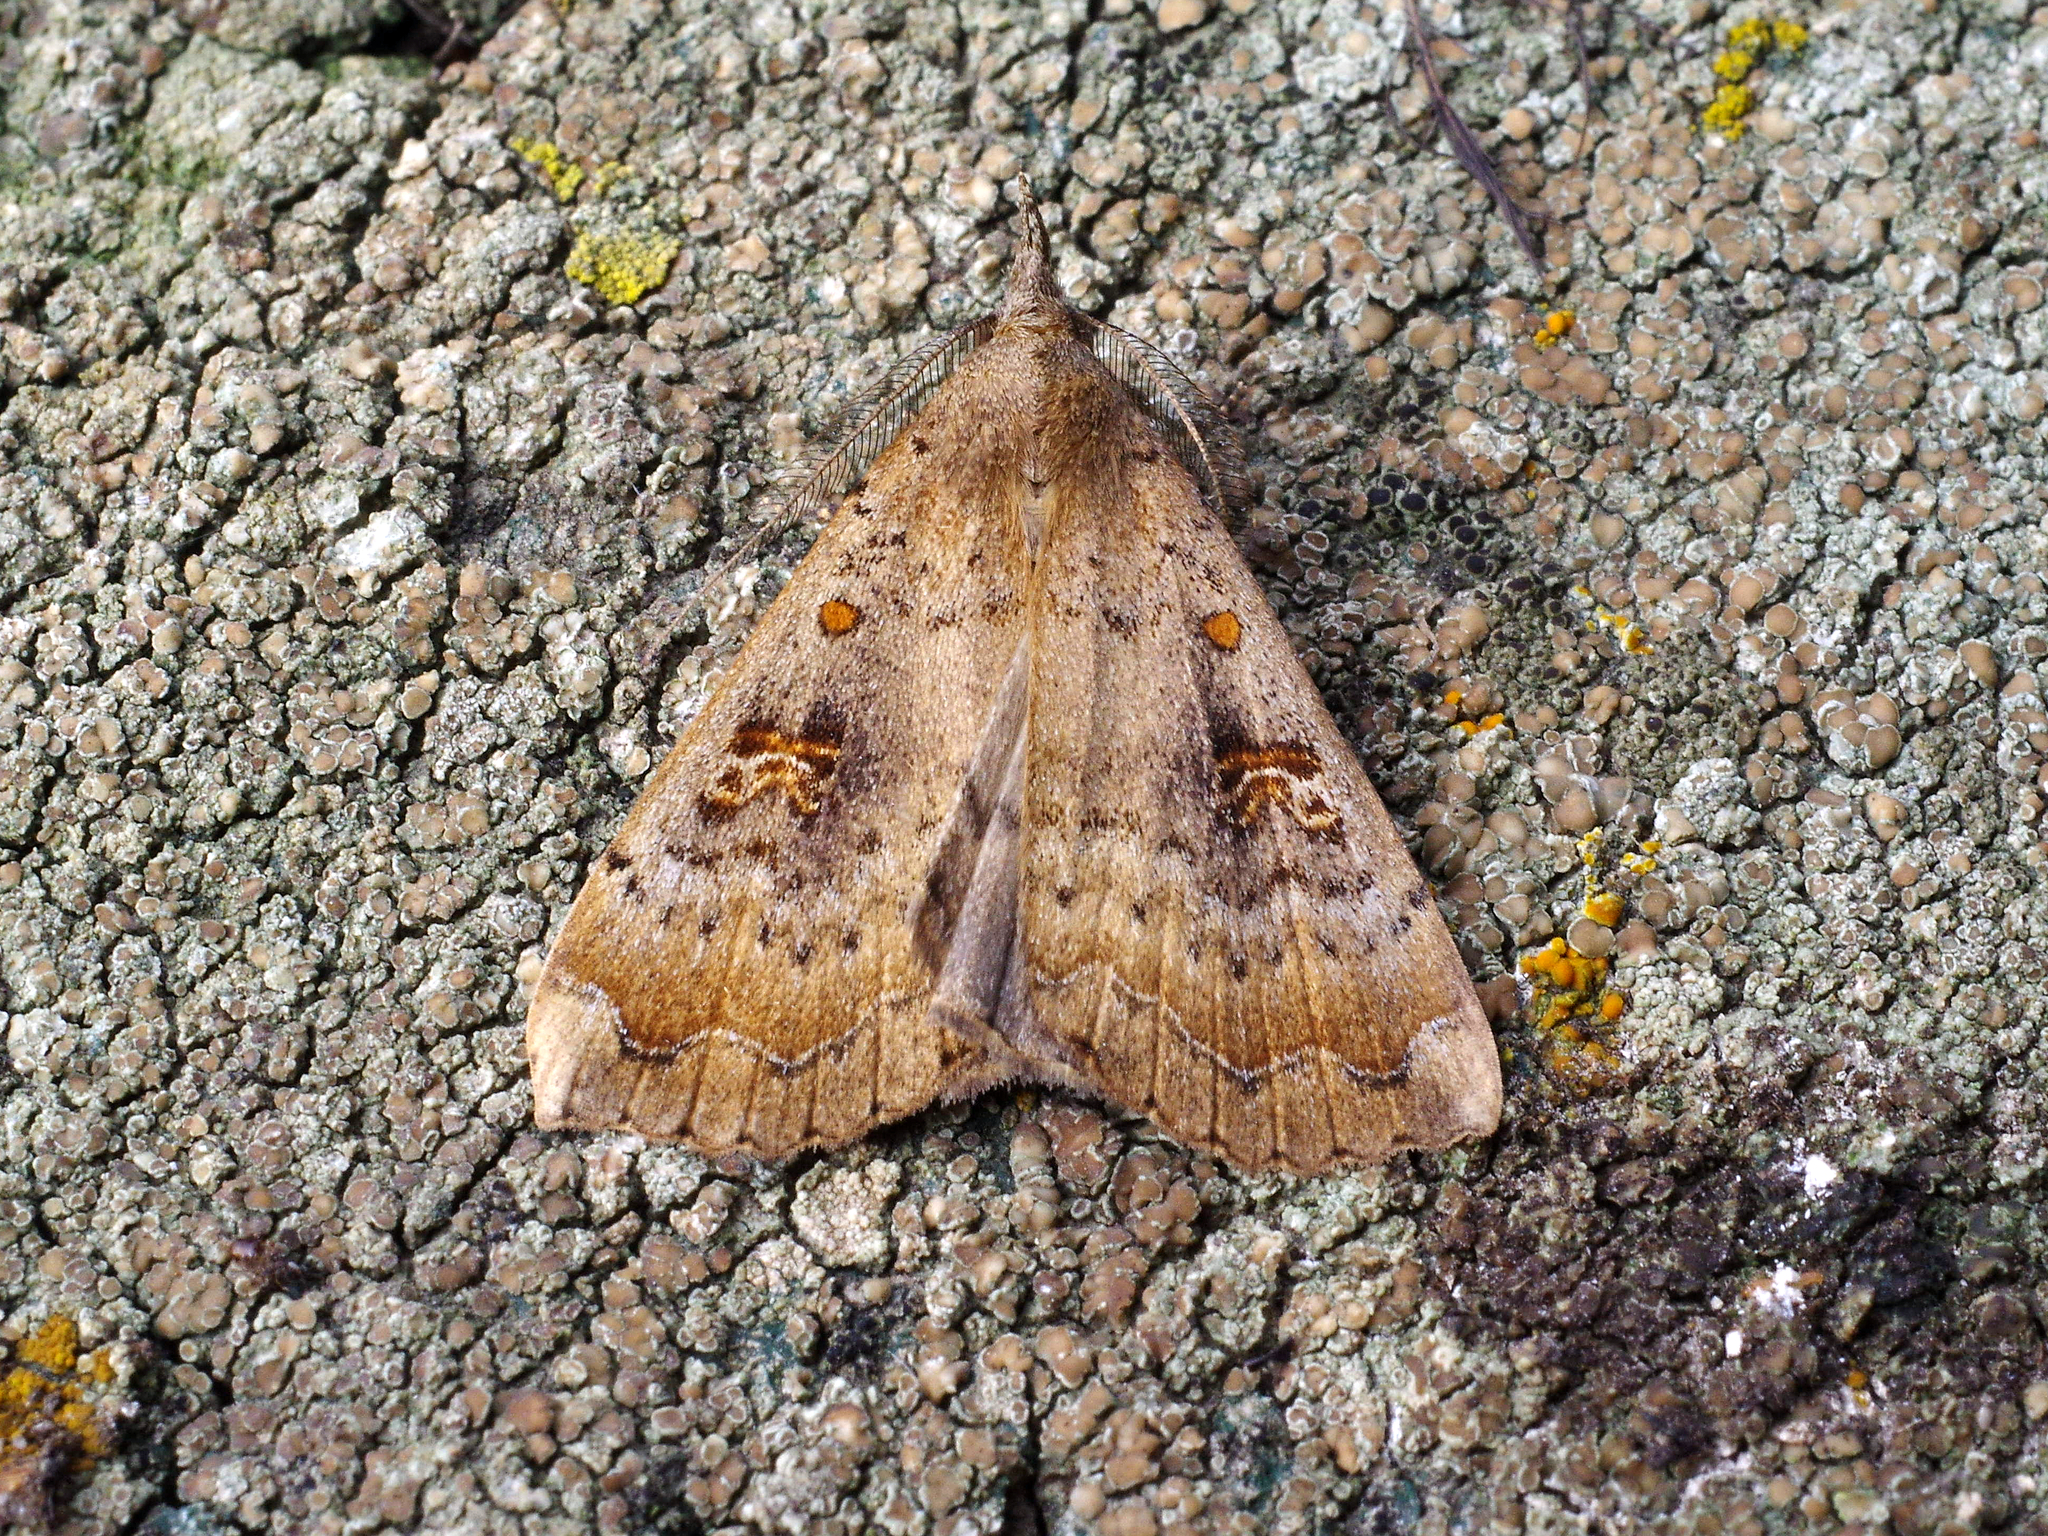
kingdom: Animalia
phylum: Arthropoda
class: Insecta
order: Lepidoptera
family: Erebidae
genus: Rhapsa
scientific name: Rhapsa scotosialis
